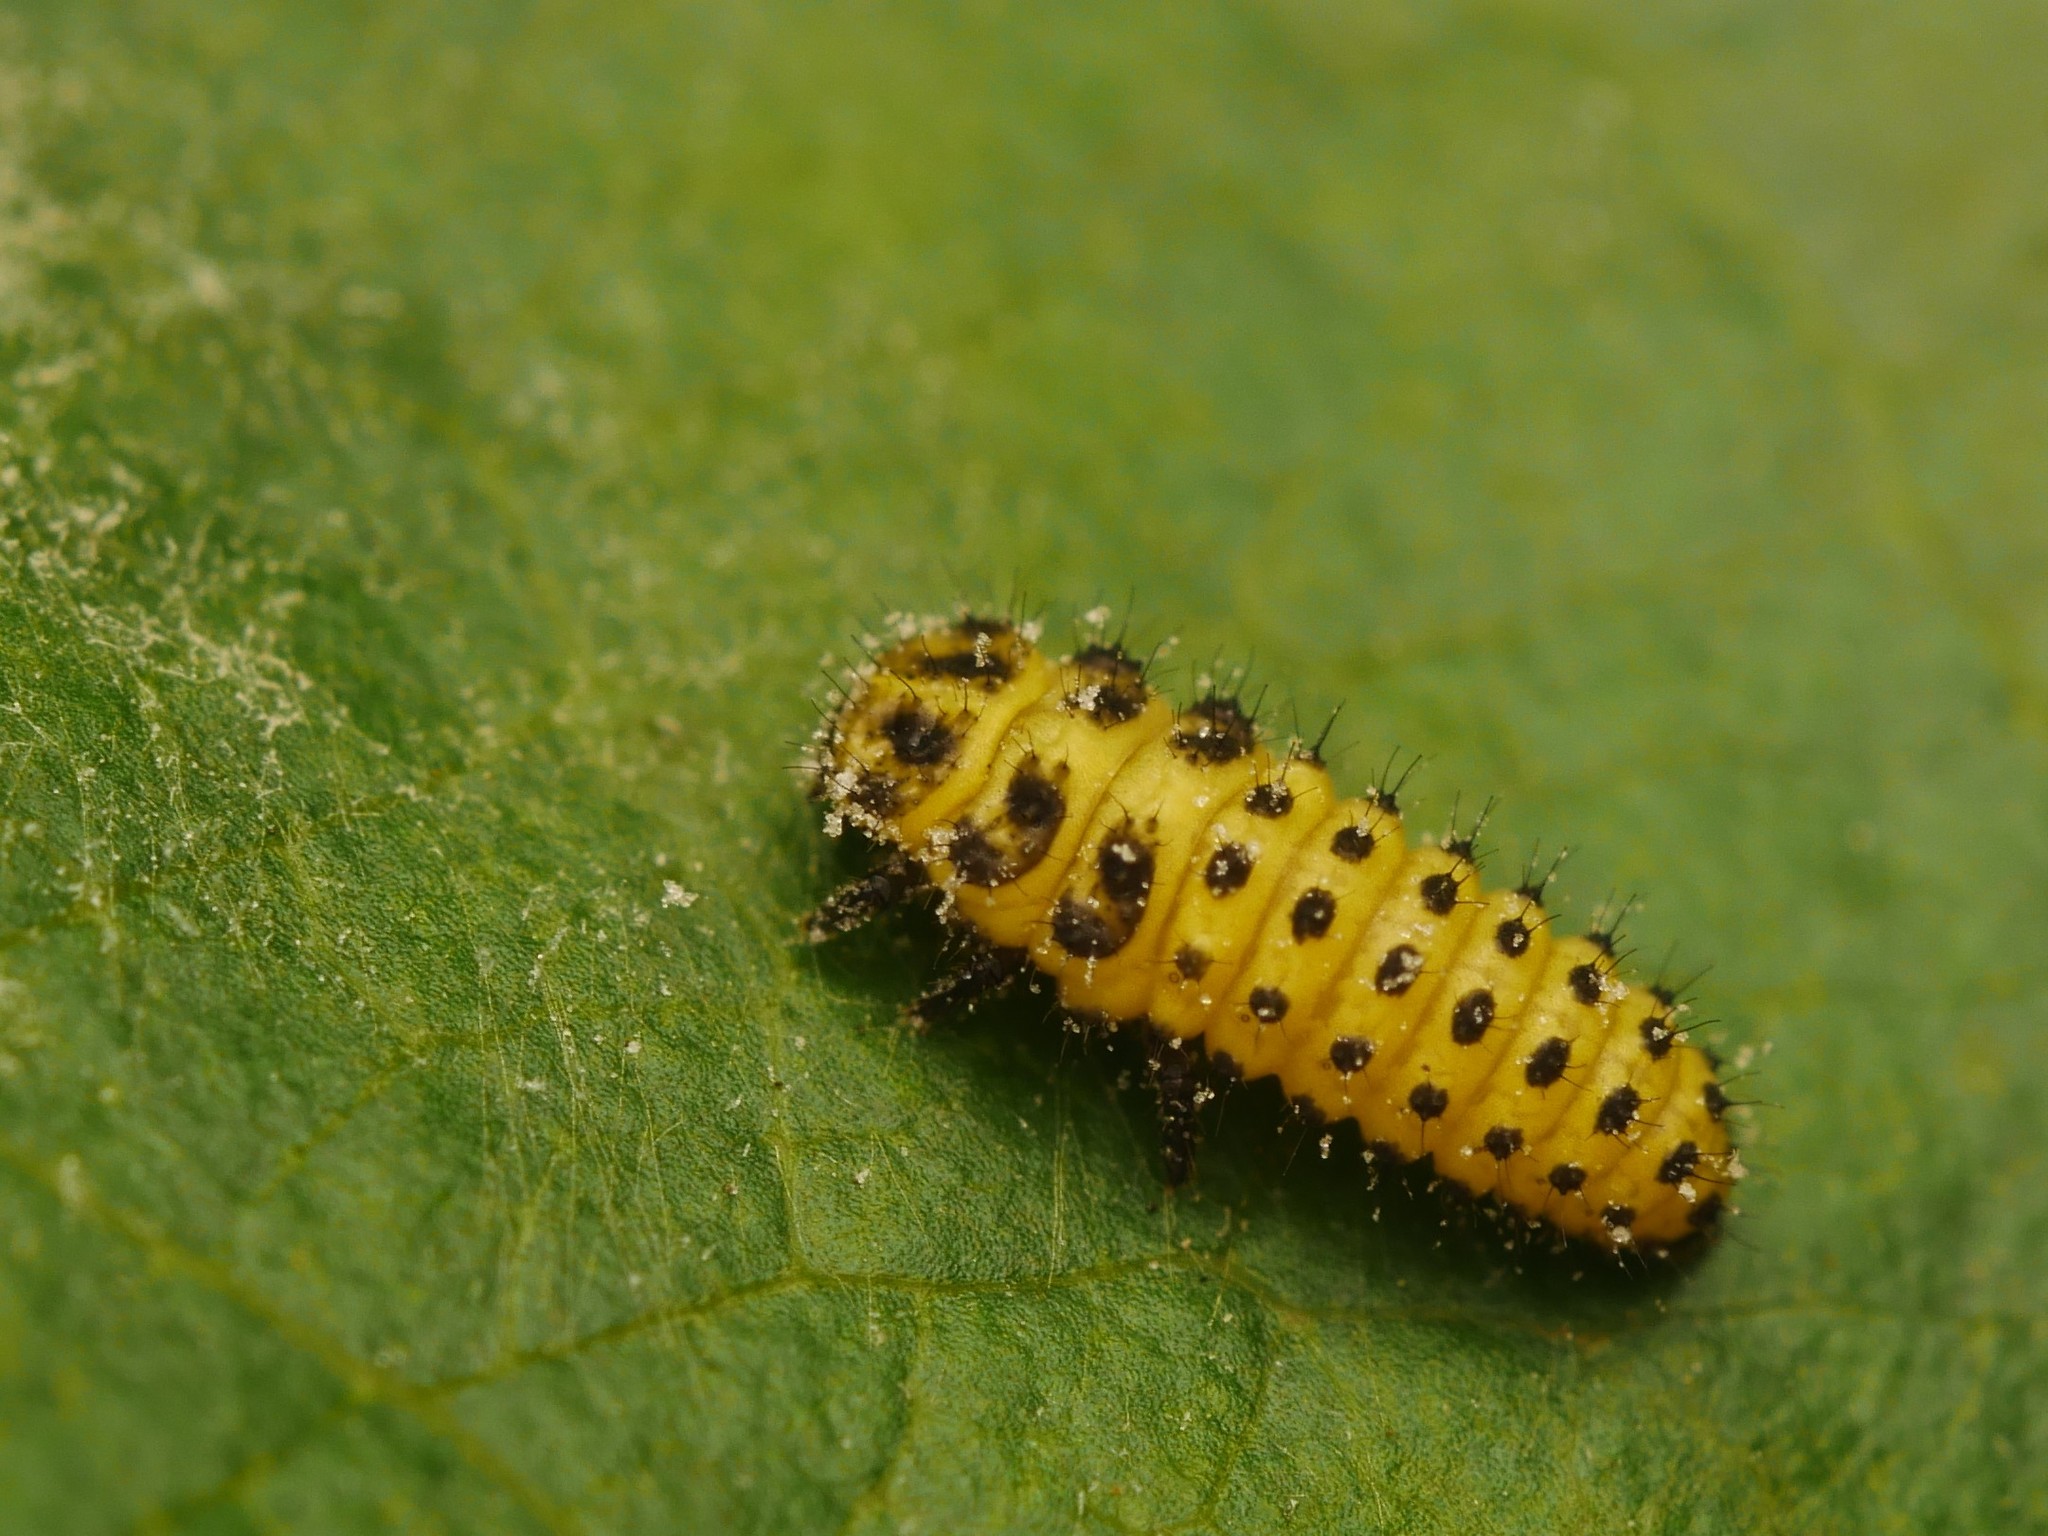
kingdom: Animalia
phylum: Arthropoda
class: Insecta
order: Coleoptera
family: Coccinellidae
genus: Psyllobora
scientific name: Psyllobora vigintiduopunctata
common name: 22-spot ladybird
